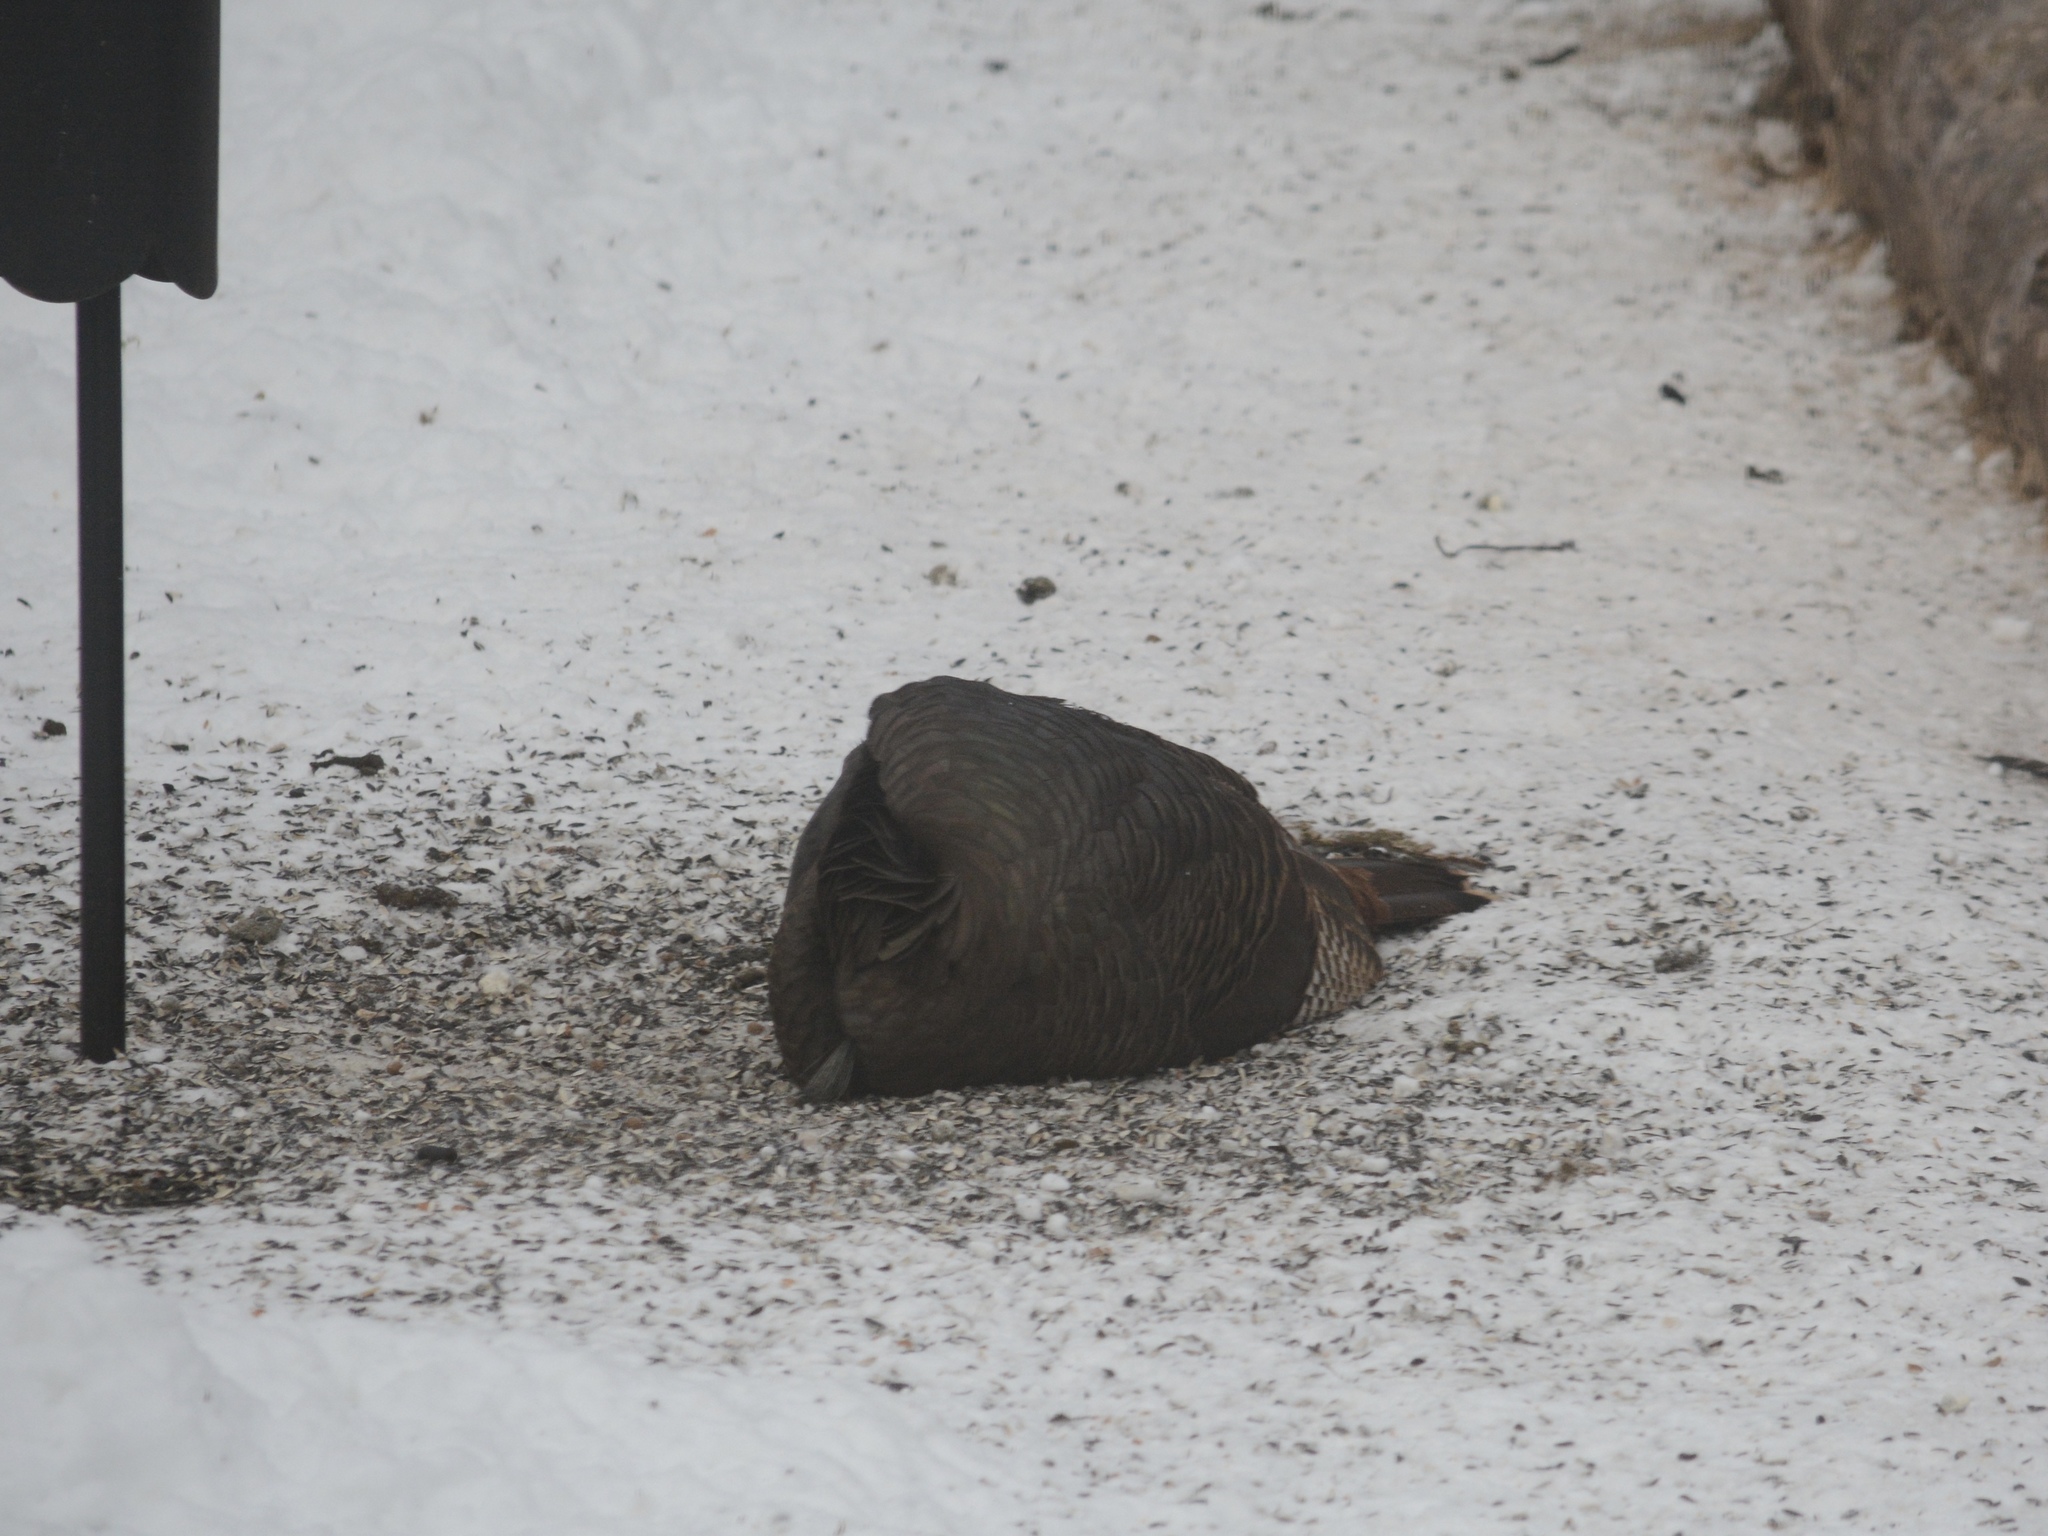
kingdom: Animalia
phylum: Chordata
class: Aves
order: Galliformes
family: Phasianidae
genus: Meleagris
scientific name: Meleagris gallopavo
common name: Wild turkey
